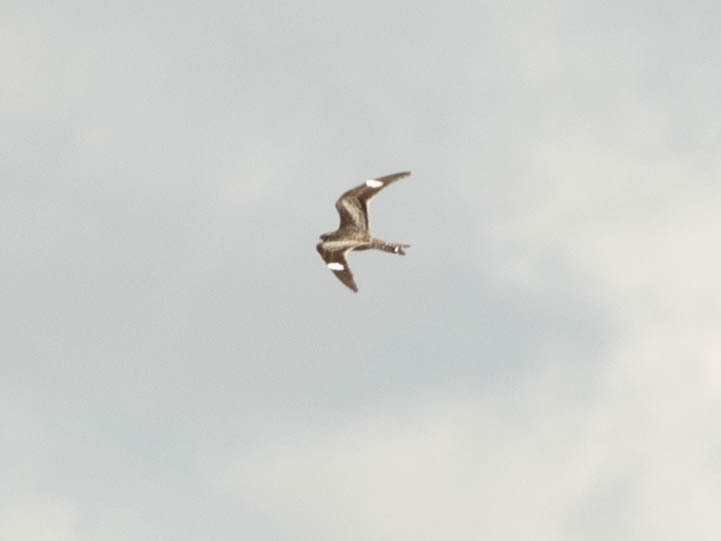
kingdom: Animalia
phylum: Chordata
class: Aves
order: Caprimulgiformes
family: Caprimulgidae
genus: Chordeiles
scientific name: Chordeiles minor
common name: Common nighthawk
